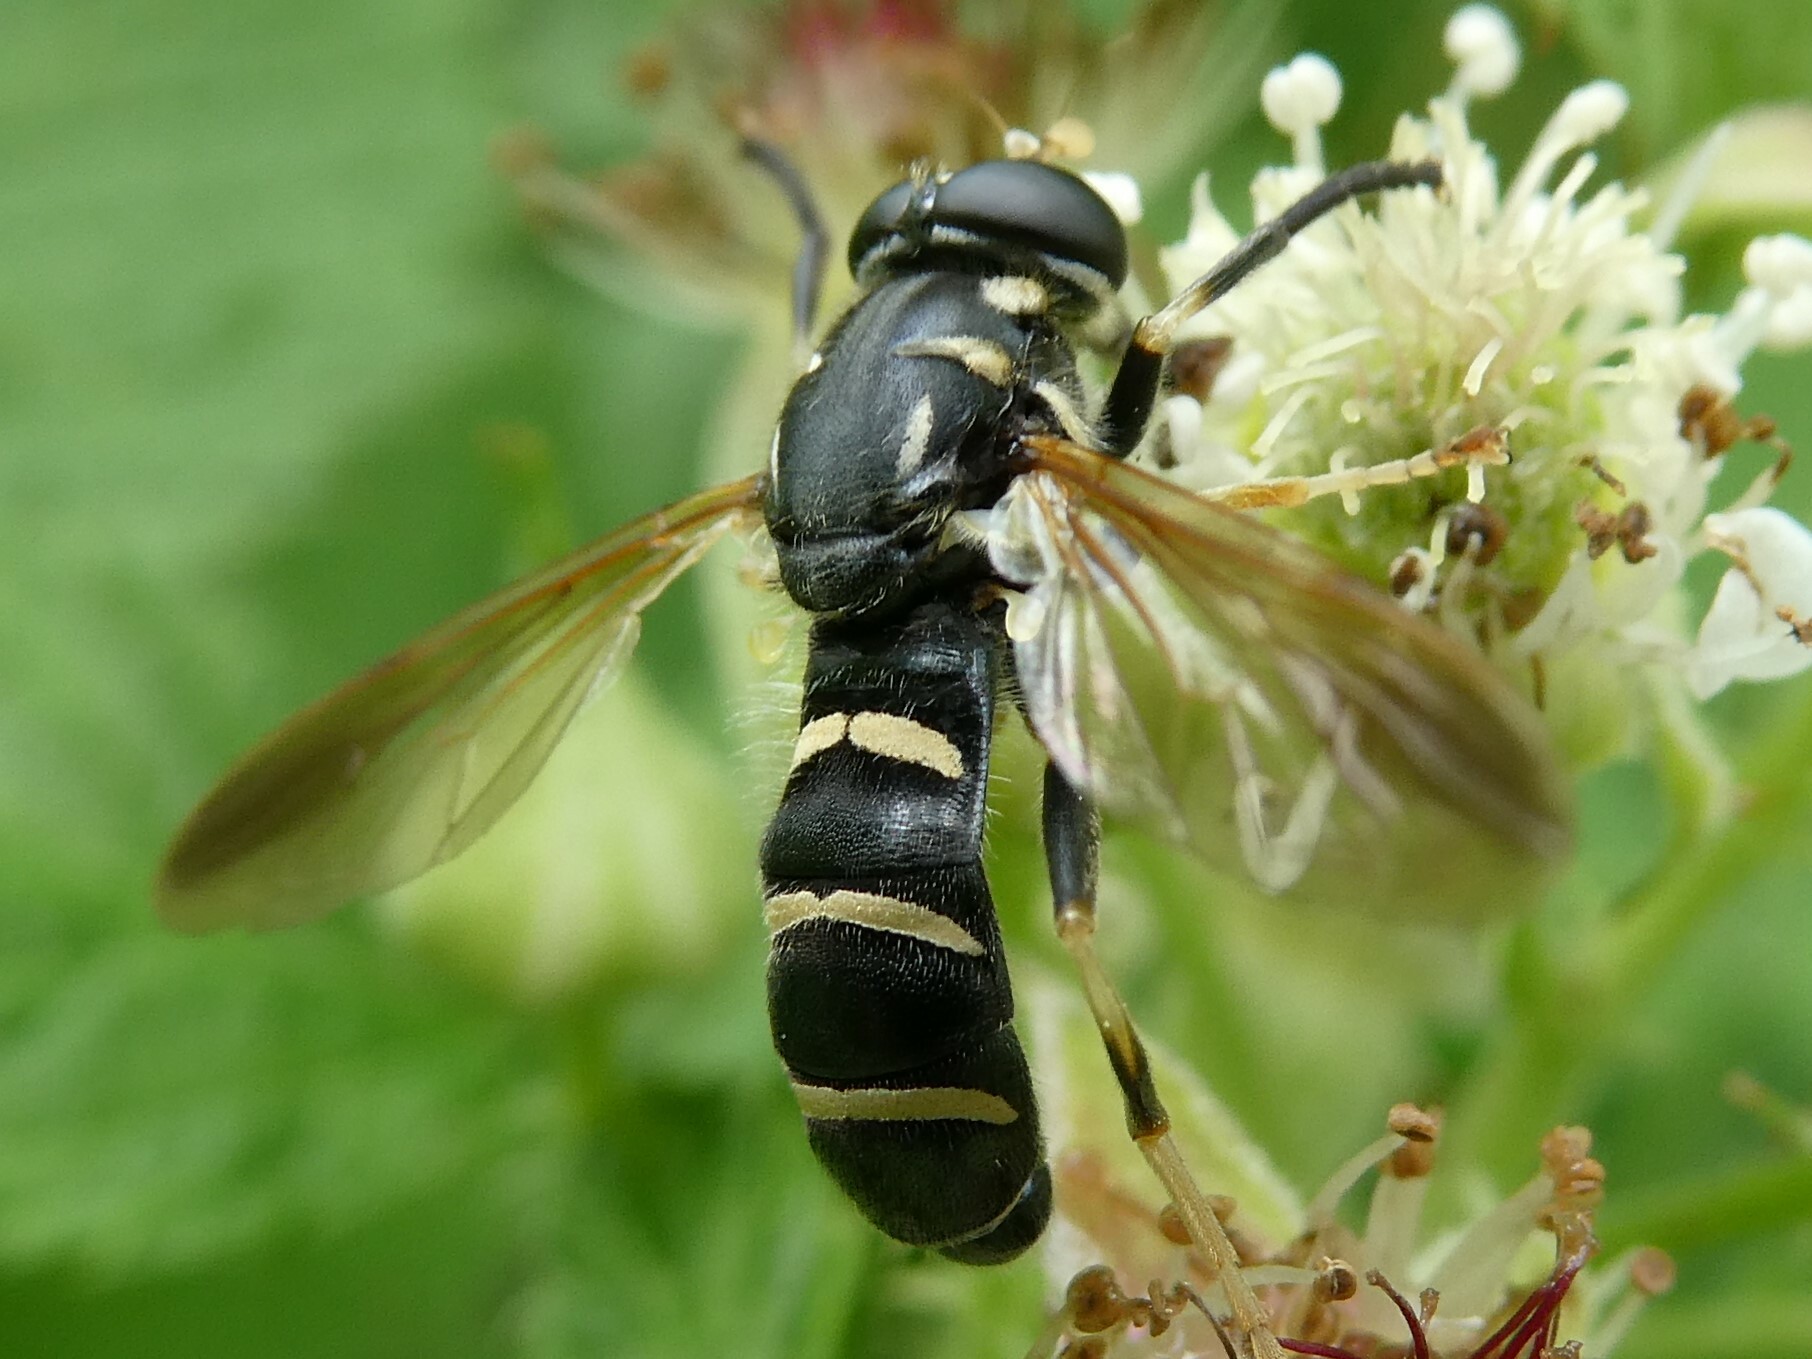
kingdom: Animalia
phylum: Arthropoda
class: Insecta
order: Diptera
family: Syrphidae
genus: Temnostoma
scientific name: Temnostoma
